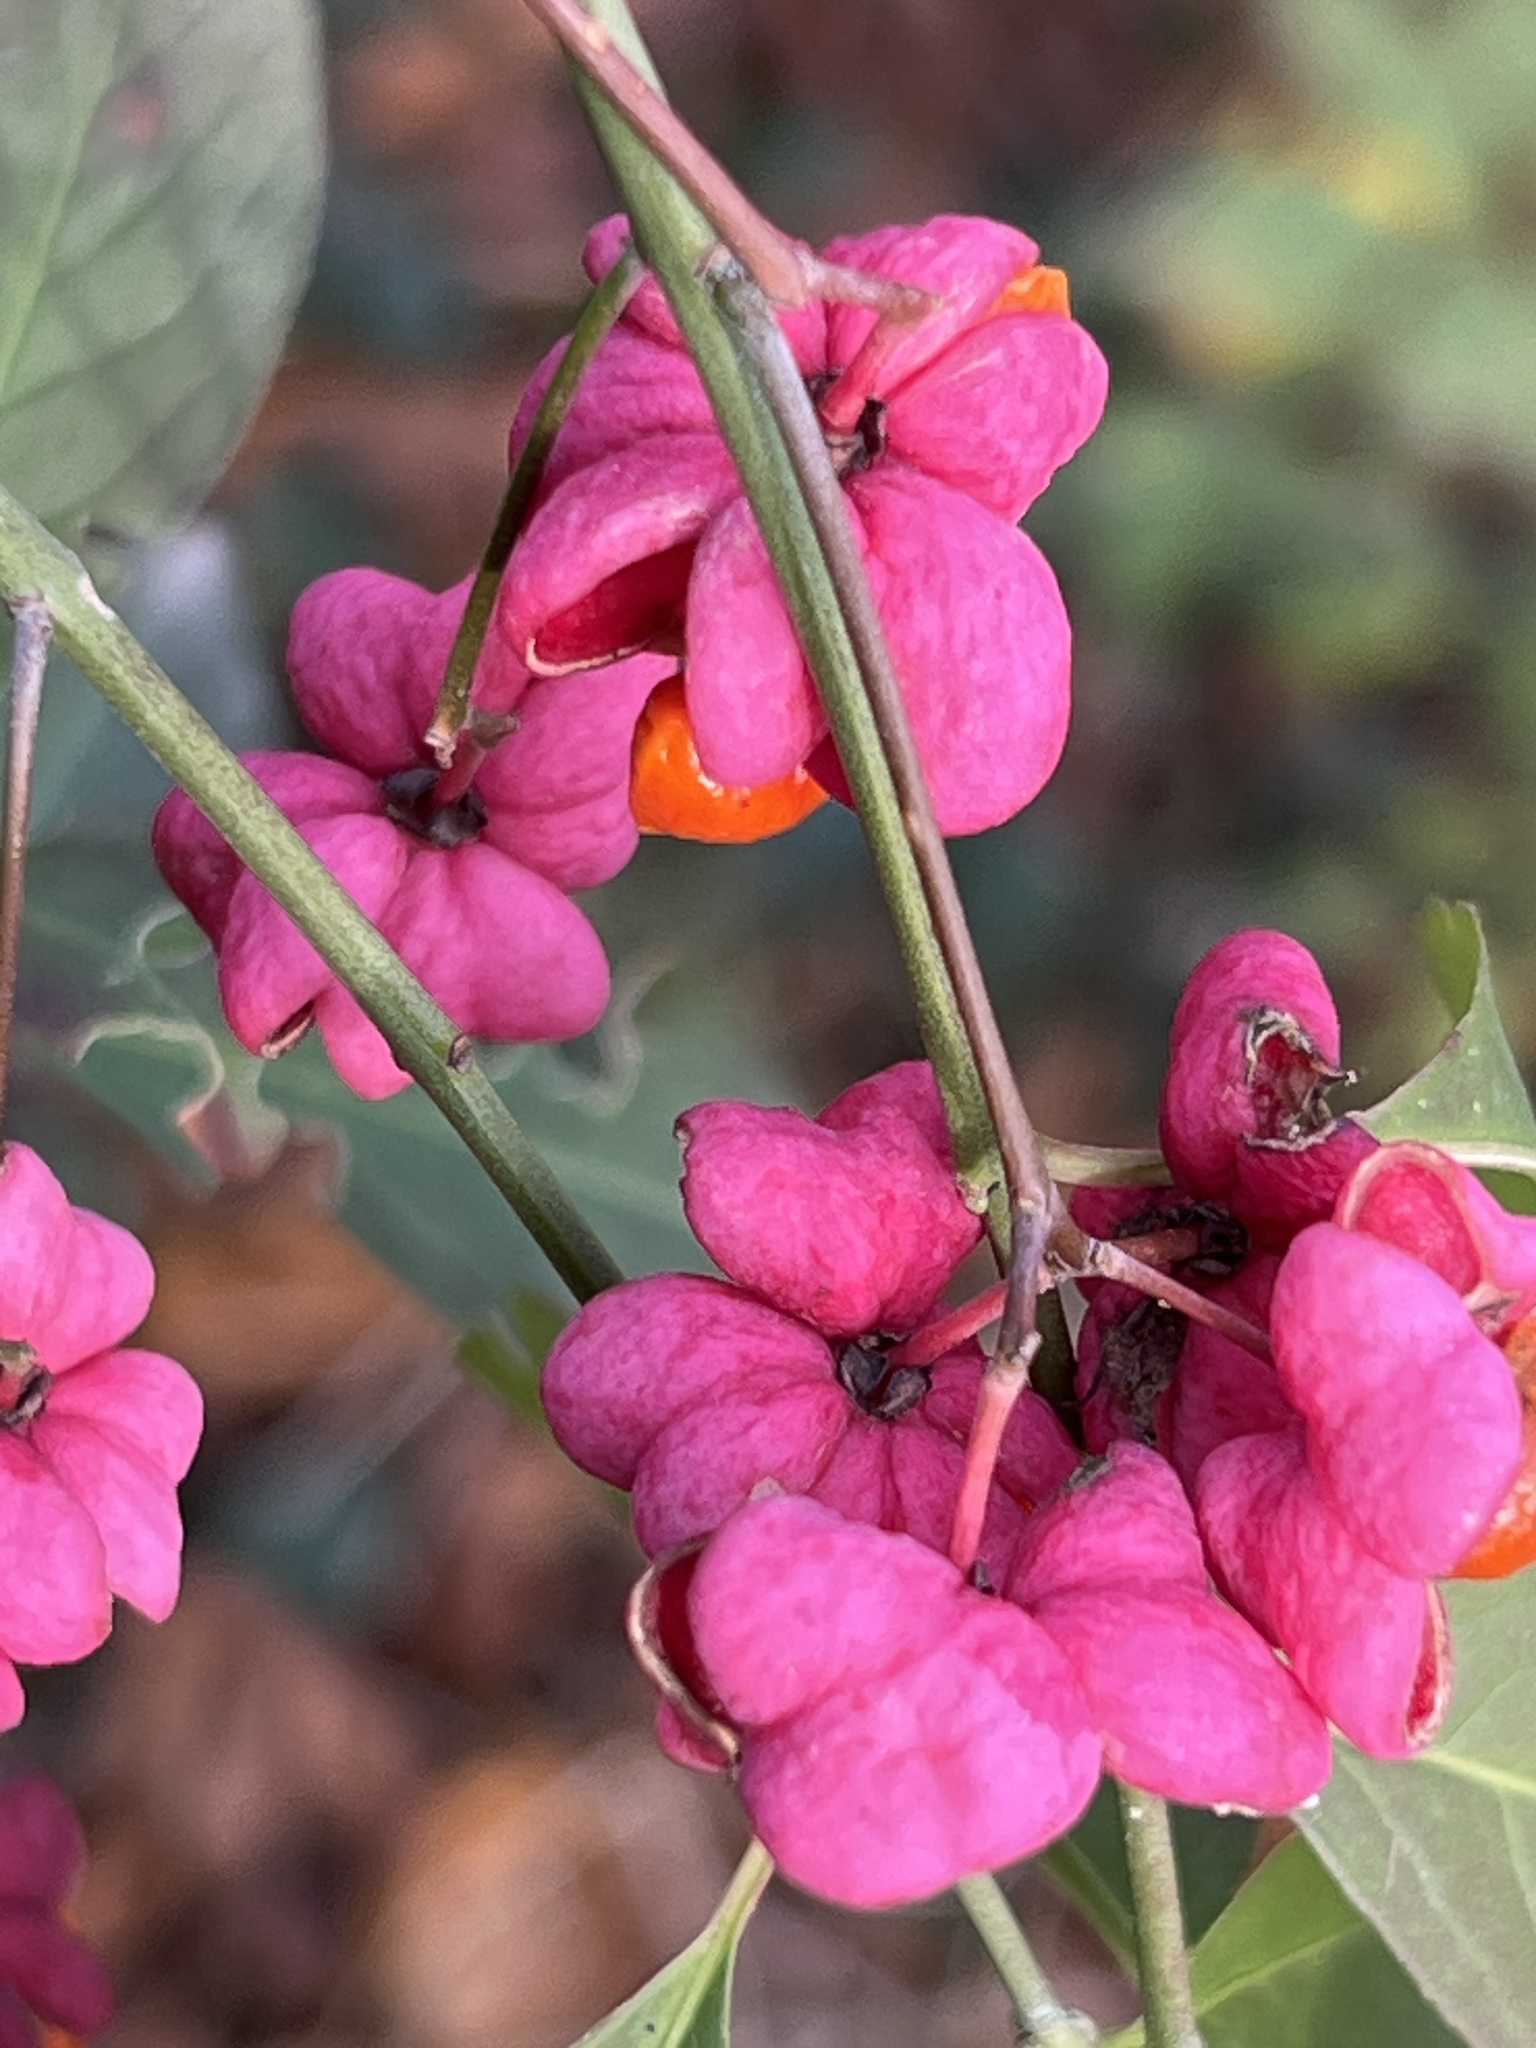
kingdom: Plantae
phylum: Tracheophyta
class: Magnoliopsida
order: Celastrales
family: Celastraceae
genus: Euonymus
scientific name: Euonymus europaeus
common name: Spindle
